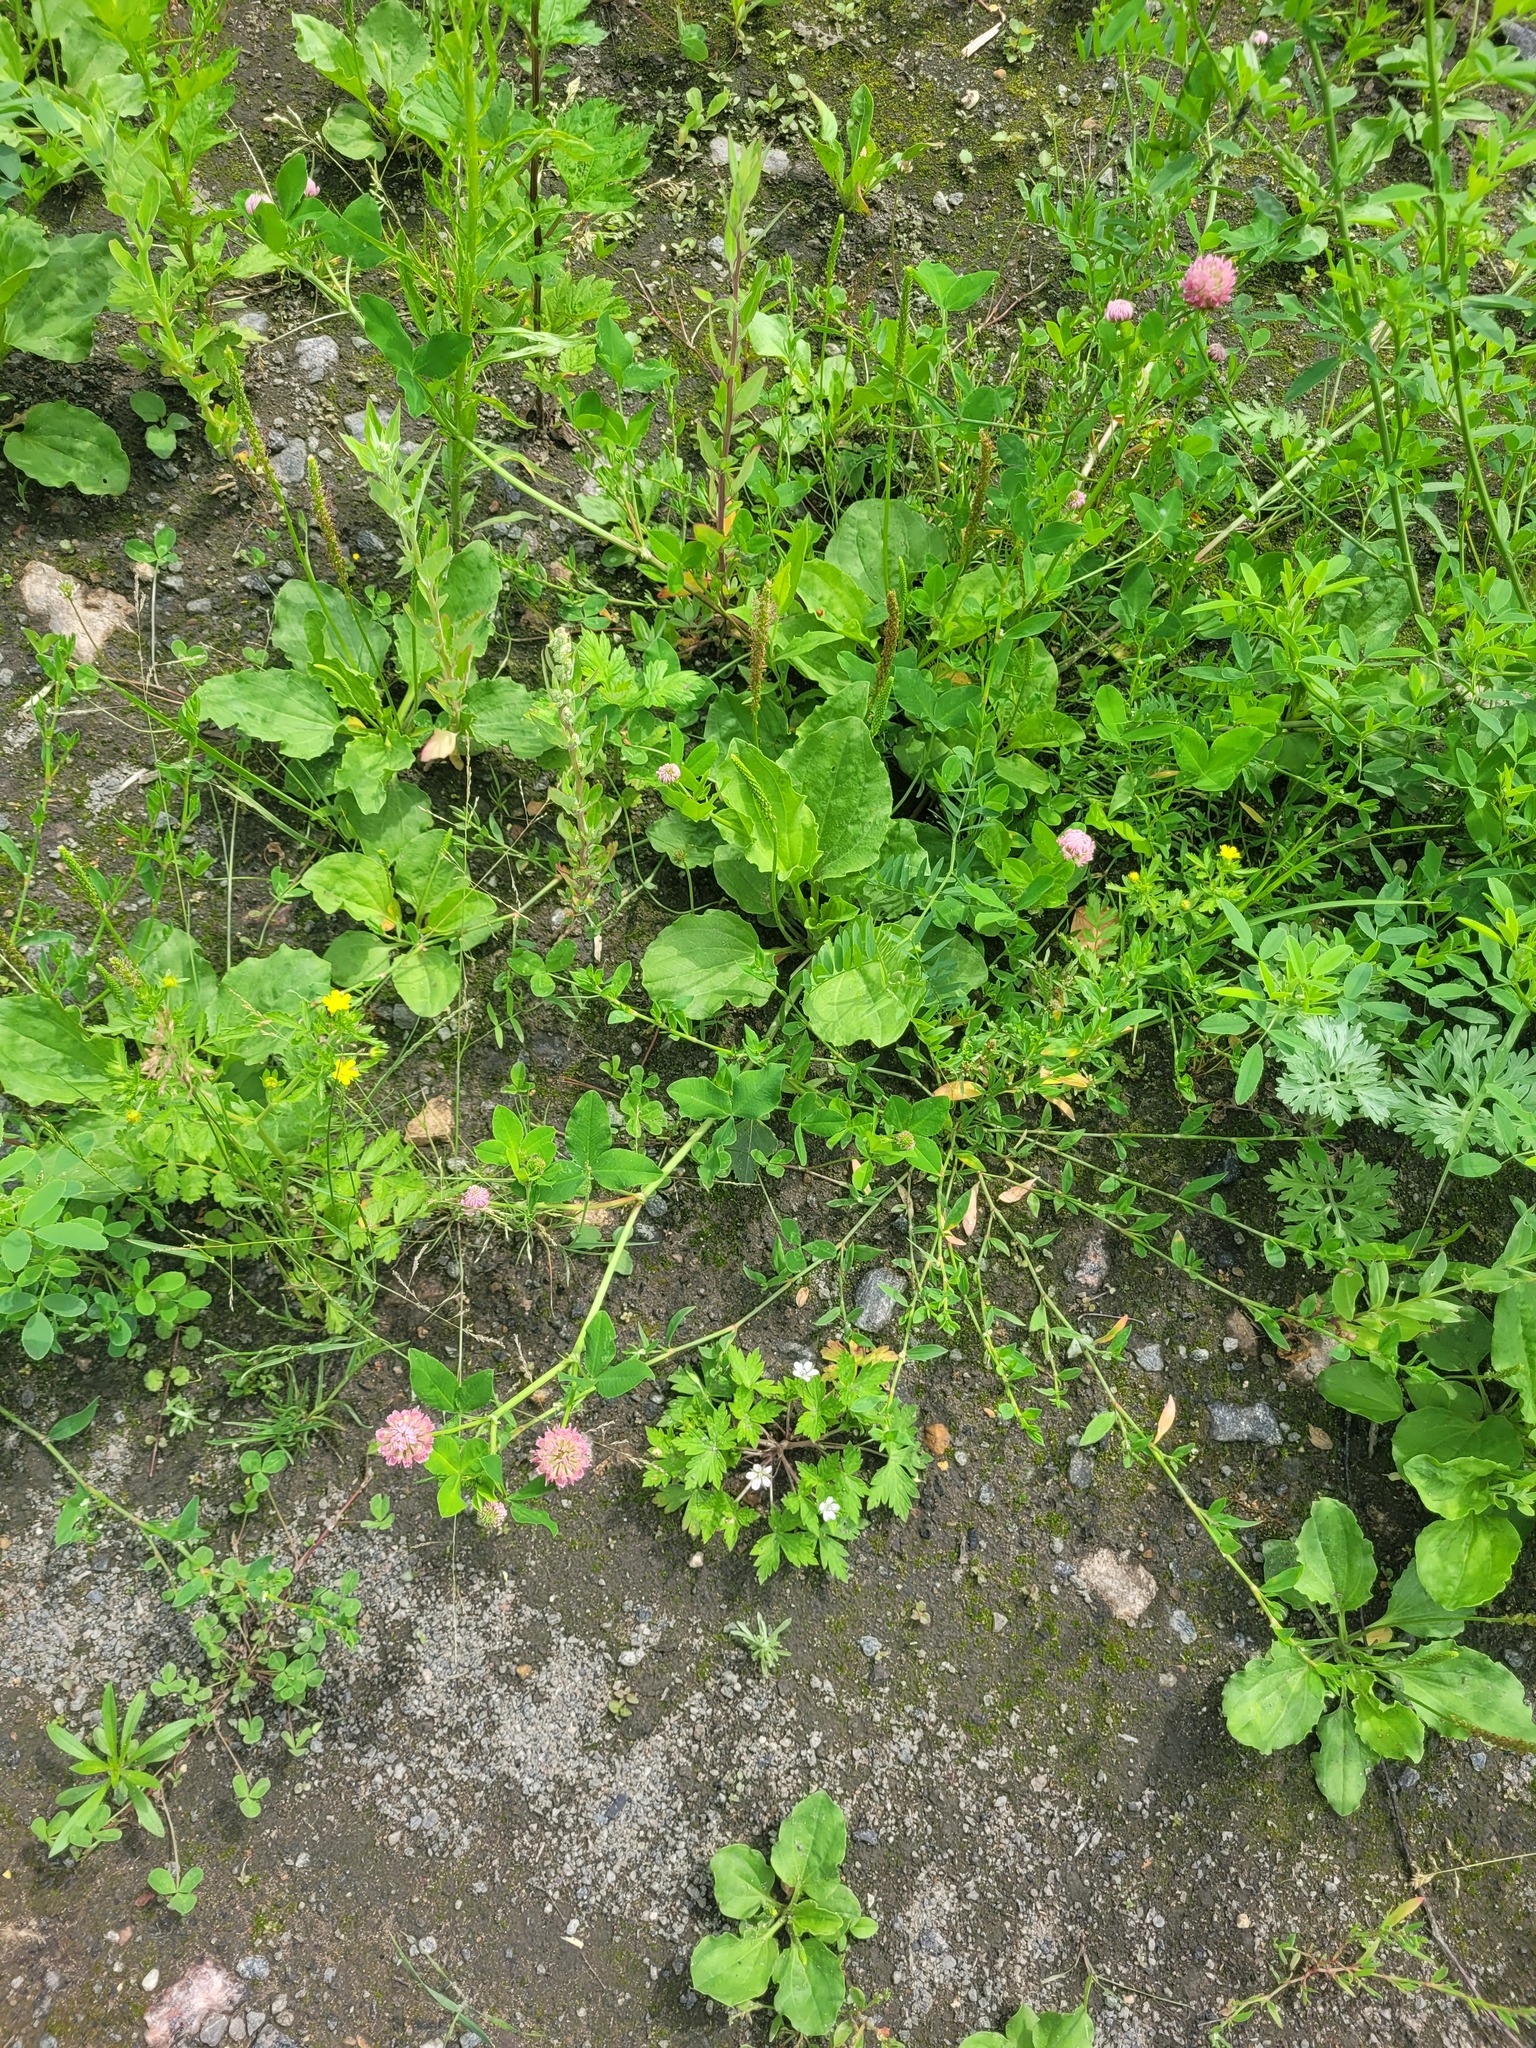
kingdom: Plantae
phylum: Tracheophyta
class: Magnoliopsida
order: Fabales
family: Fabaceae
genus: Trifolium
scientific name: Trifolium hybridum
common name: Alsike clover
